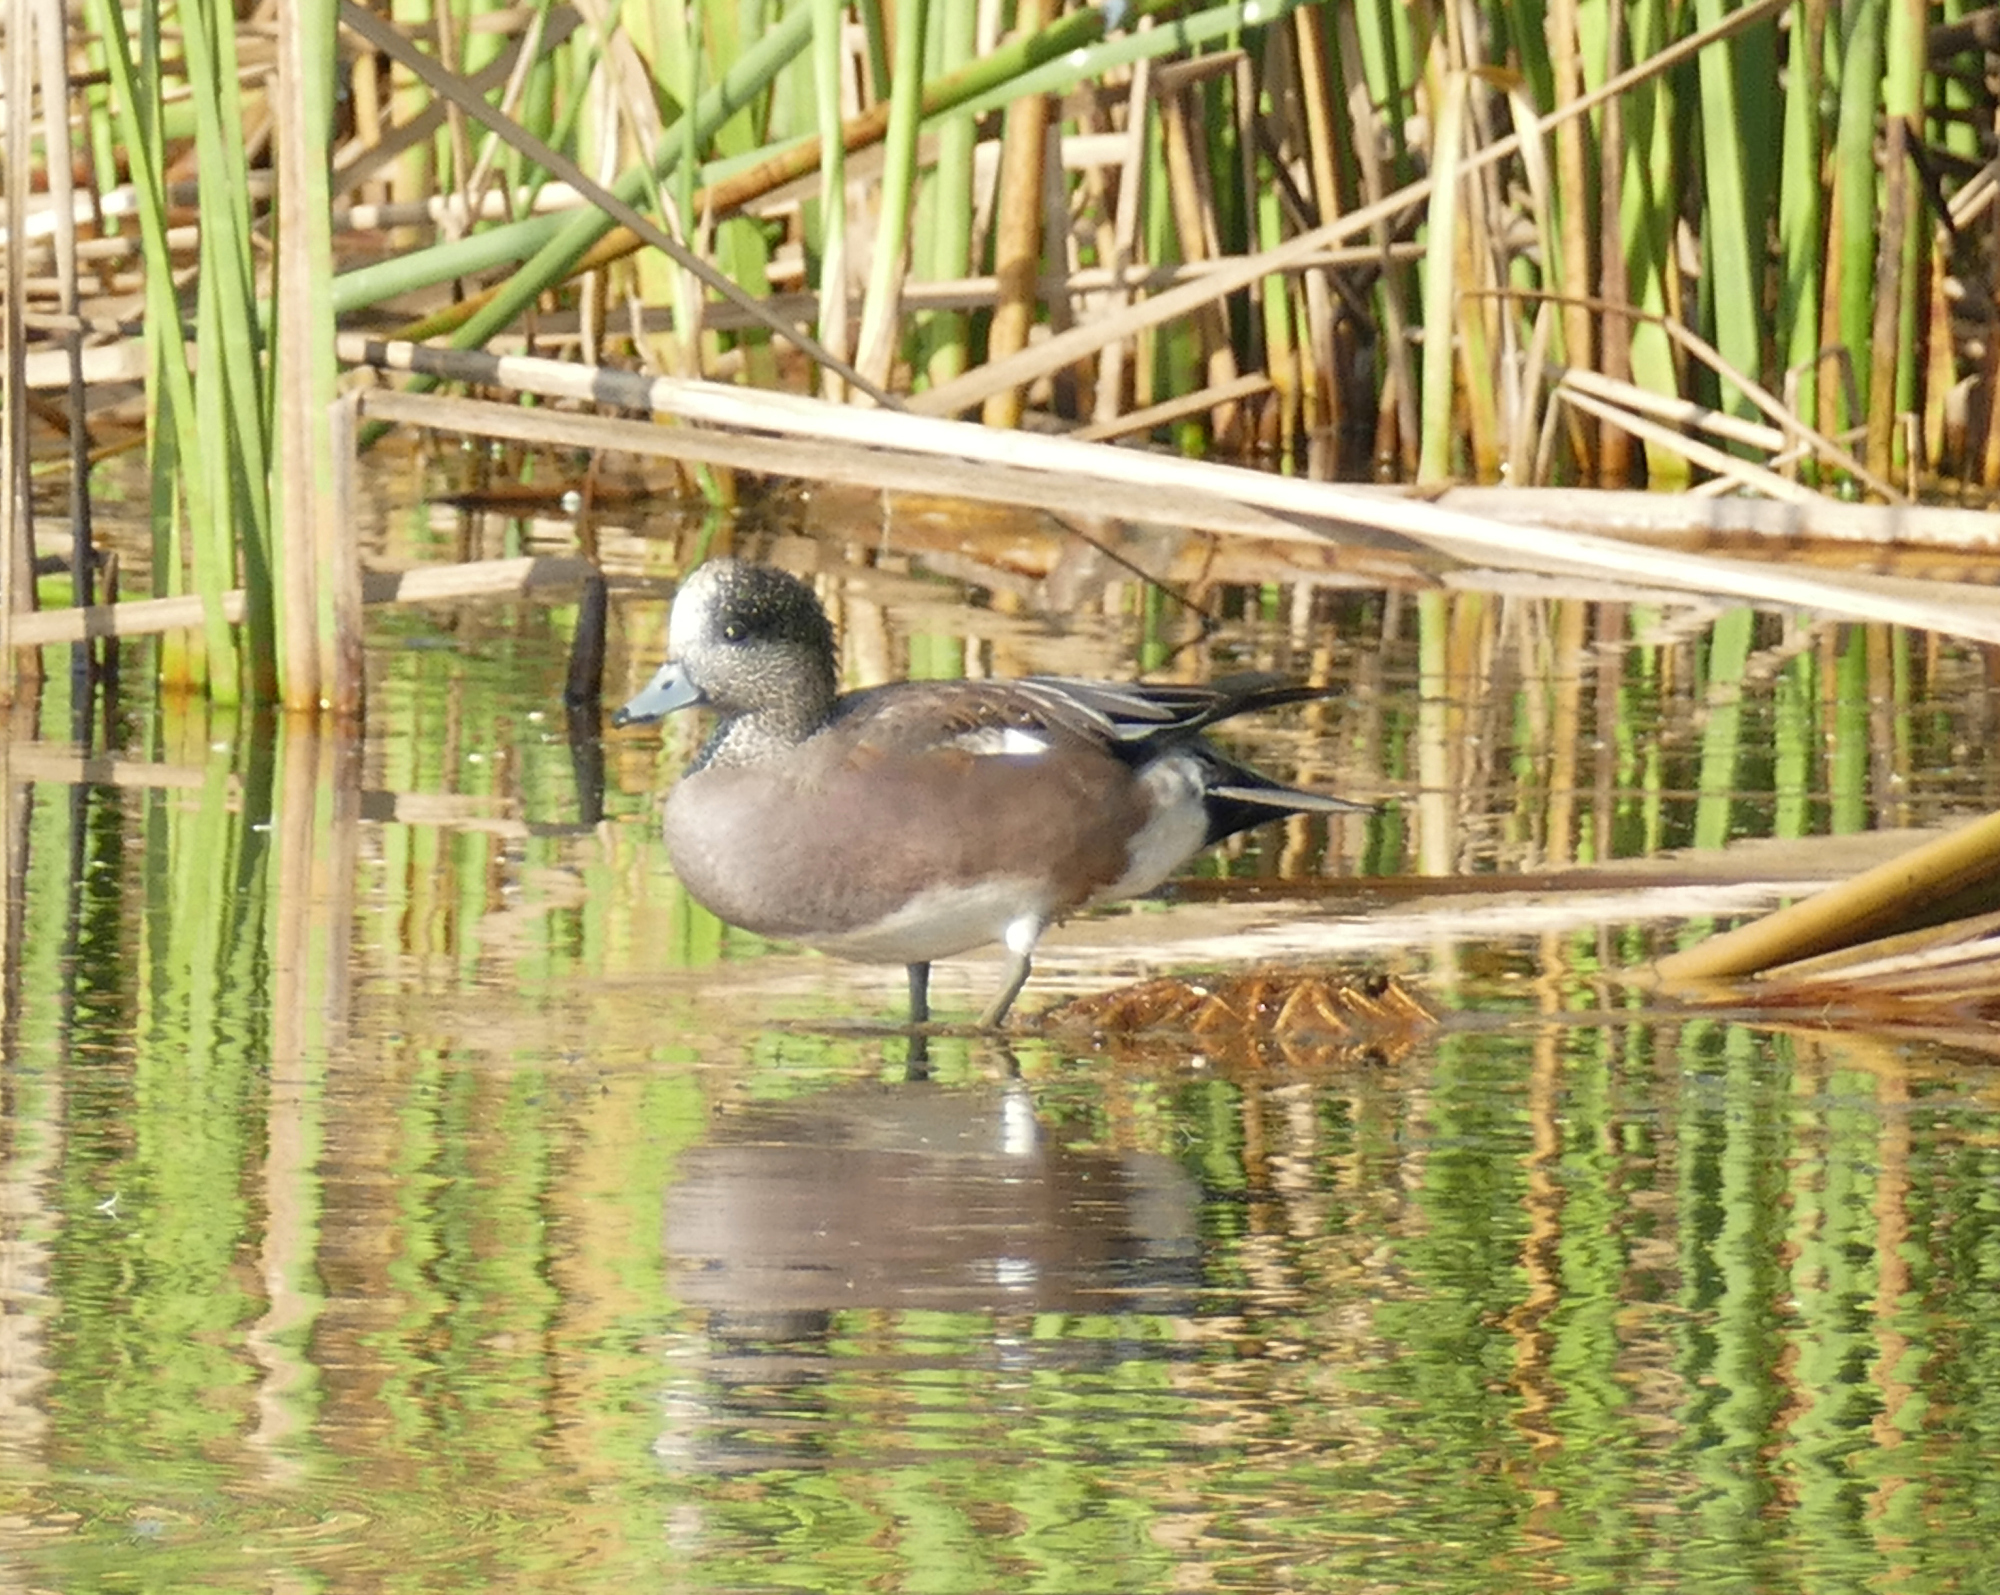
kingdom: Animalia
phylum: Chordata
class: Aves
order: Anseriformes
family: Anatidae
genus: Mareca
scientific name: Mareca americana
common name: American wigeon
